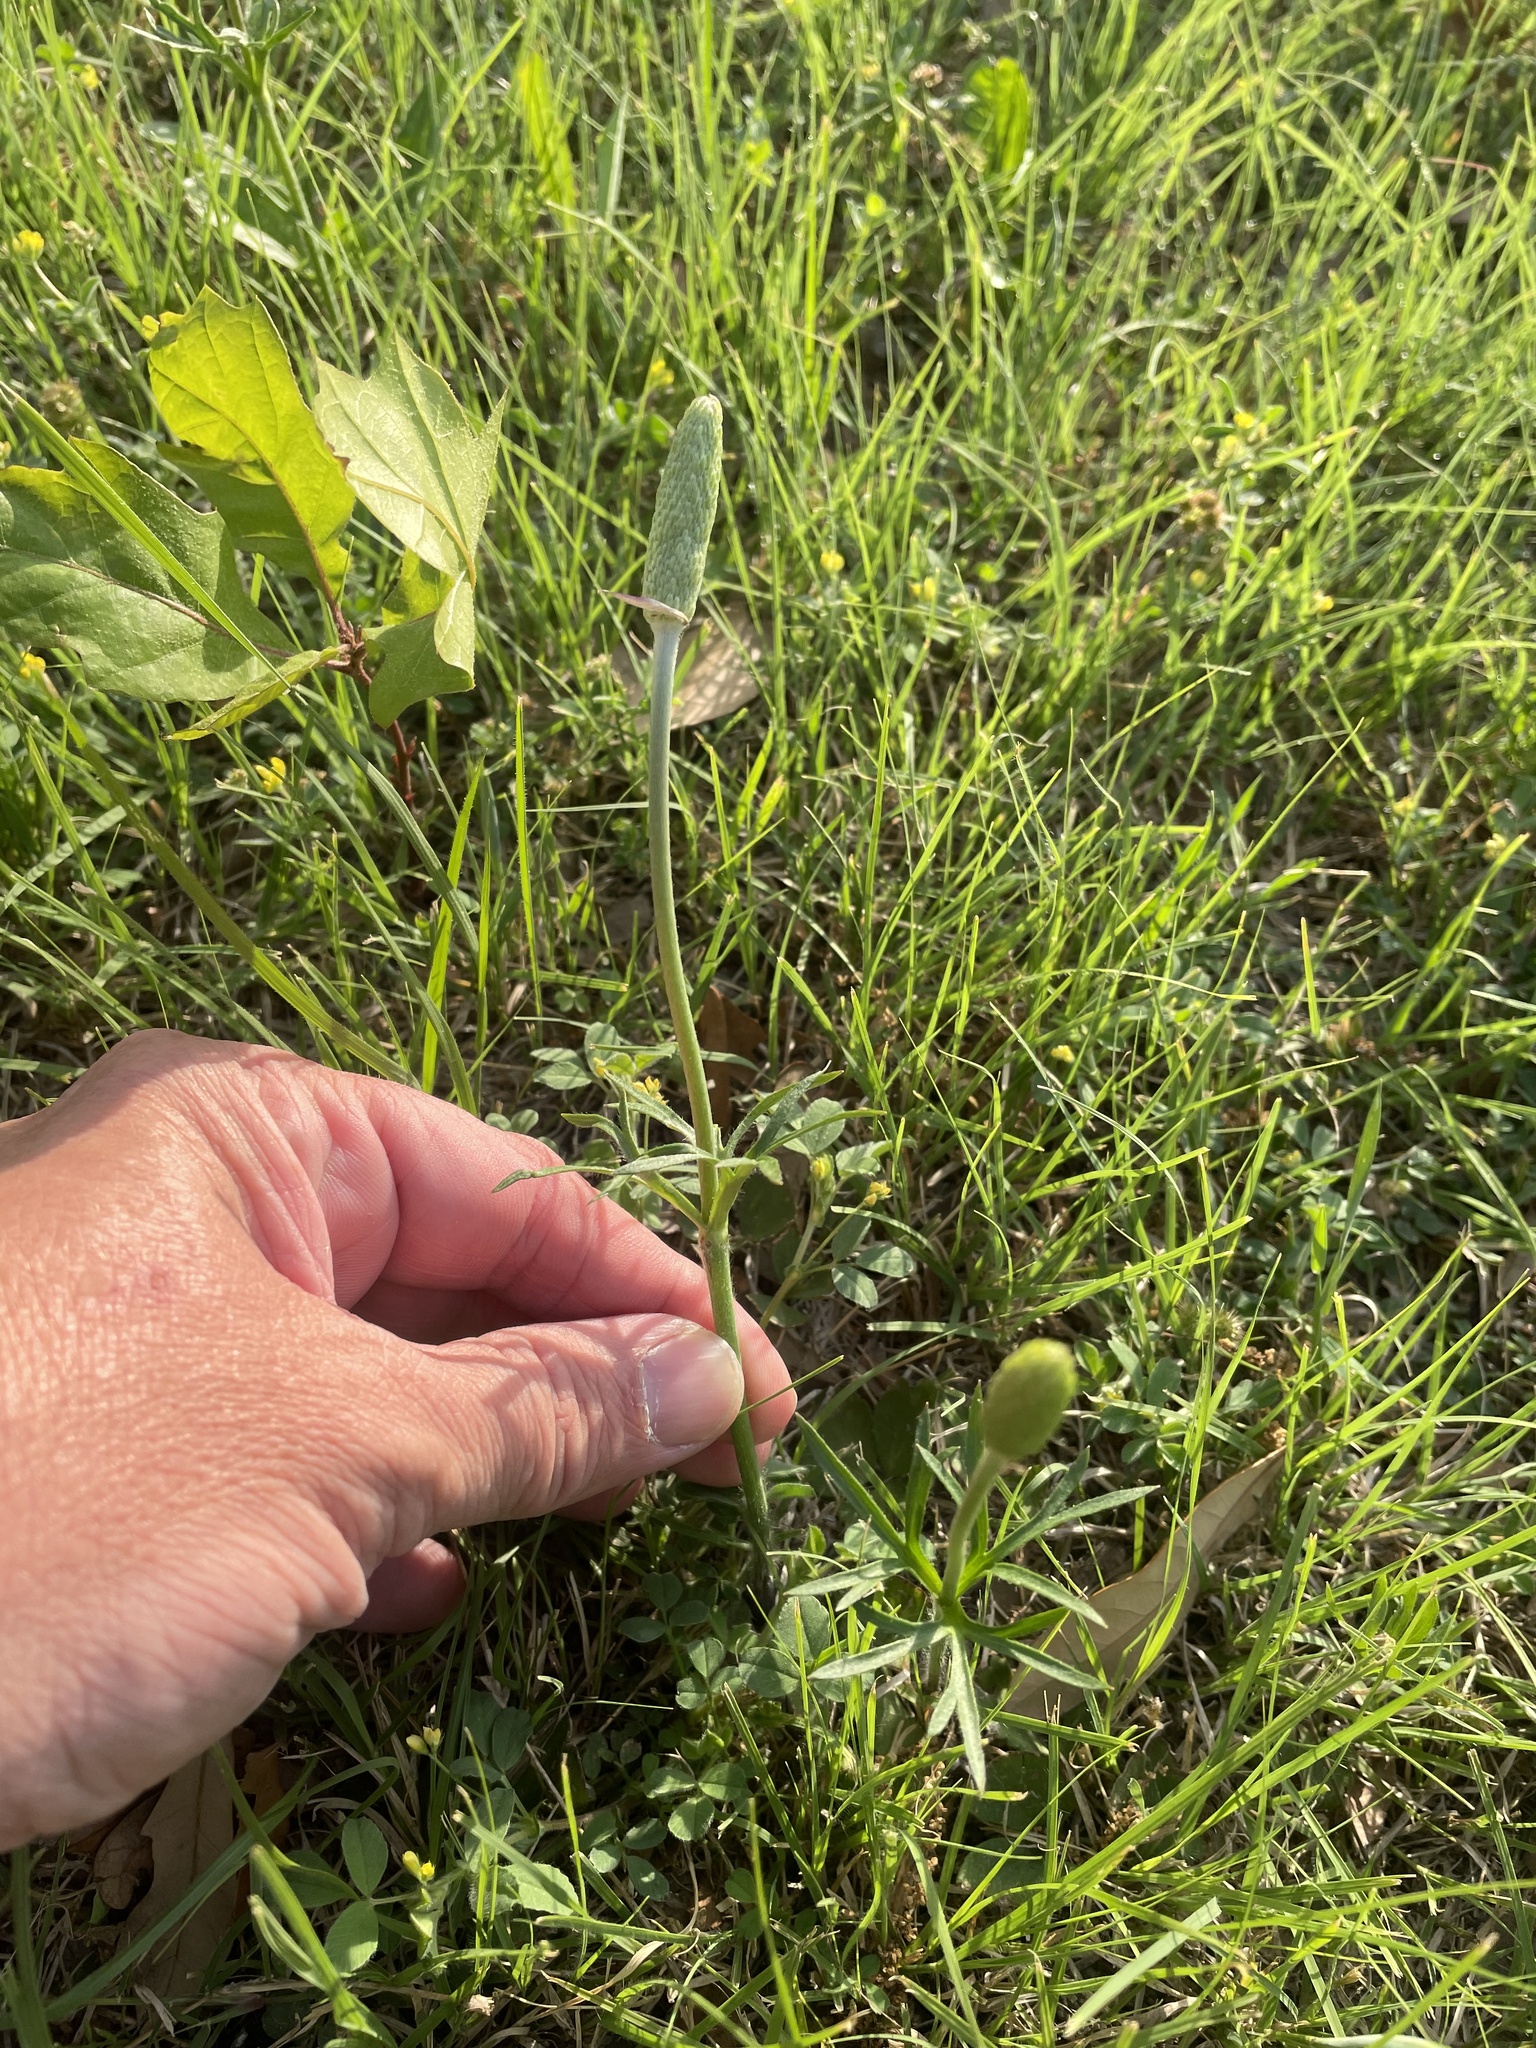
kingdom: Plantae
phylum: Tracheophyta
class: Magnoliopsida
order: Ranunculales
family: Ranunculaceae
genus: Anemone
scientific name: Anemone berlandieri
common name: Ten-petal anemone
